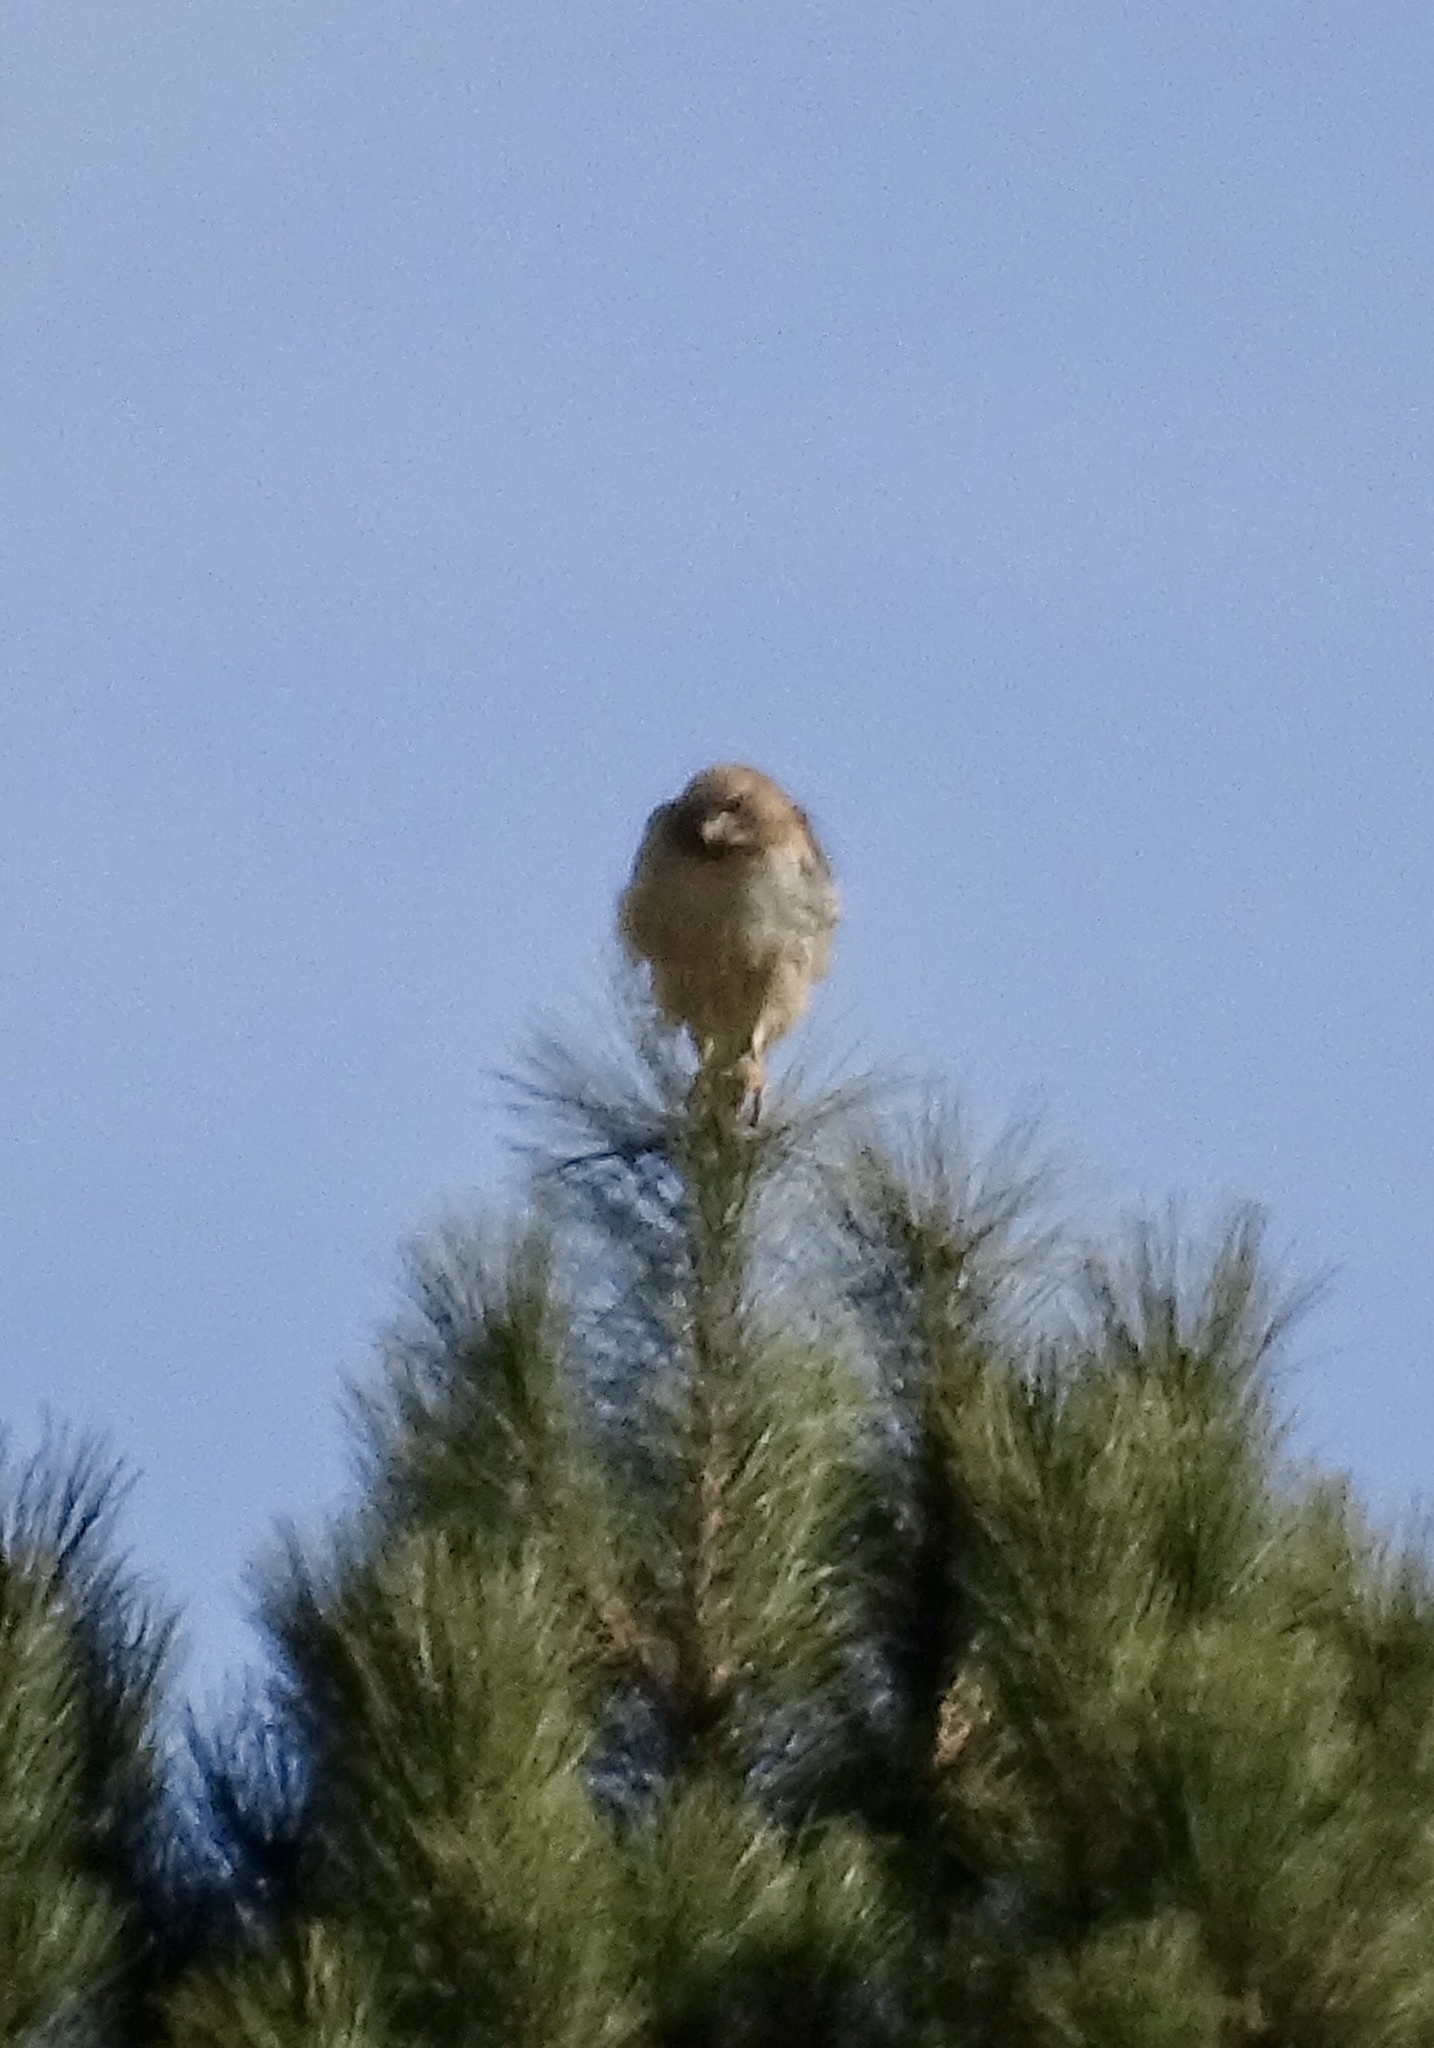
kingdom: Animalia
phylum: Chordata
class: Aves
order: Accipitriformes
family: Accipitridae
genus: Buteo
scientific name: Buteo jamaicensis
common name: Red-tailed hawk
